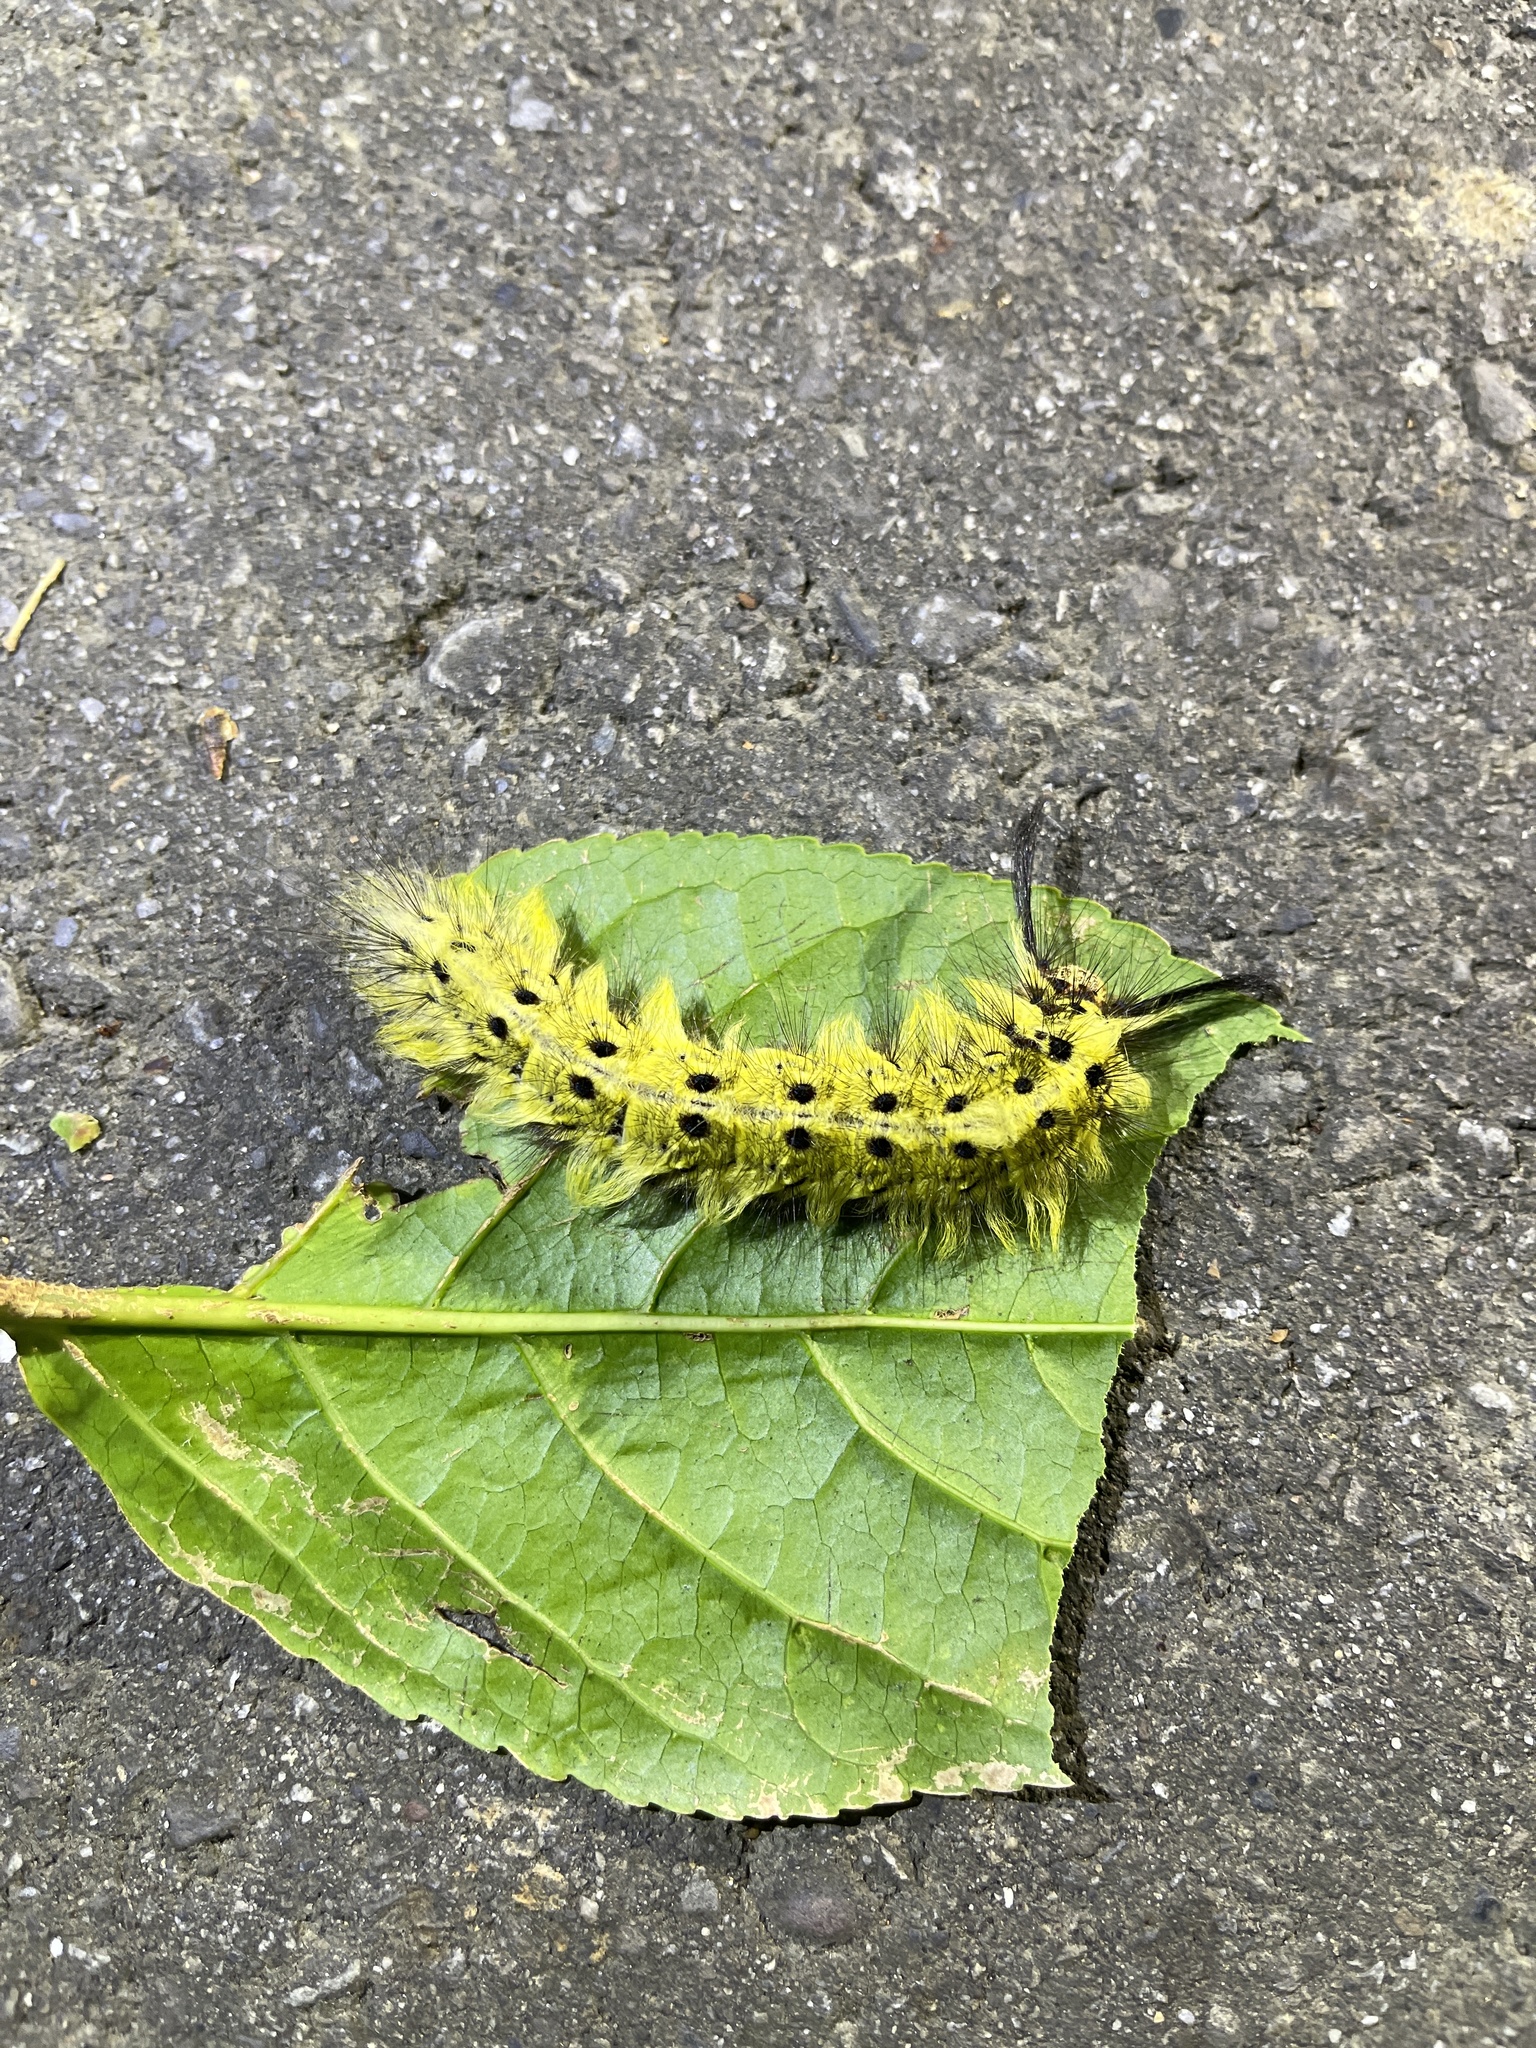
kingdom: Animalia
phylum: Arthropoda
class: Insecta
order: Lepidoptera
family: Lasiocampidae
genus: Trabala
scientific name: Trabala vishnou
